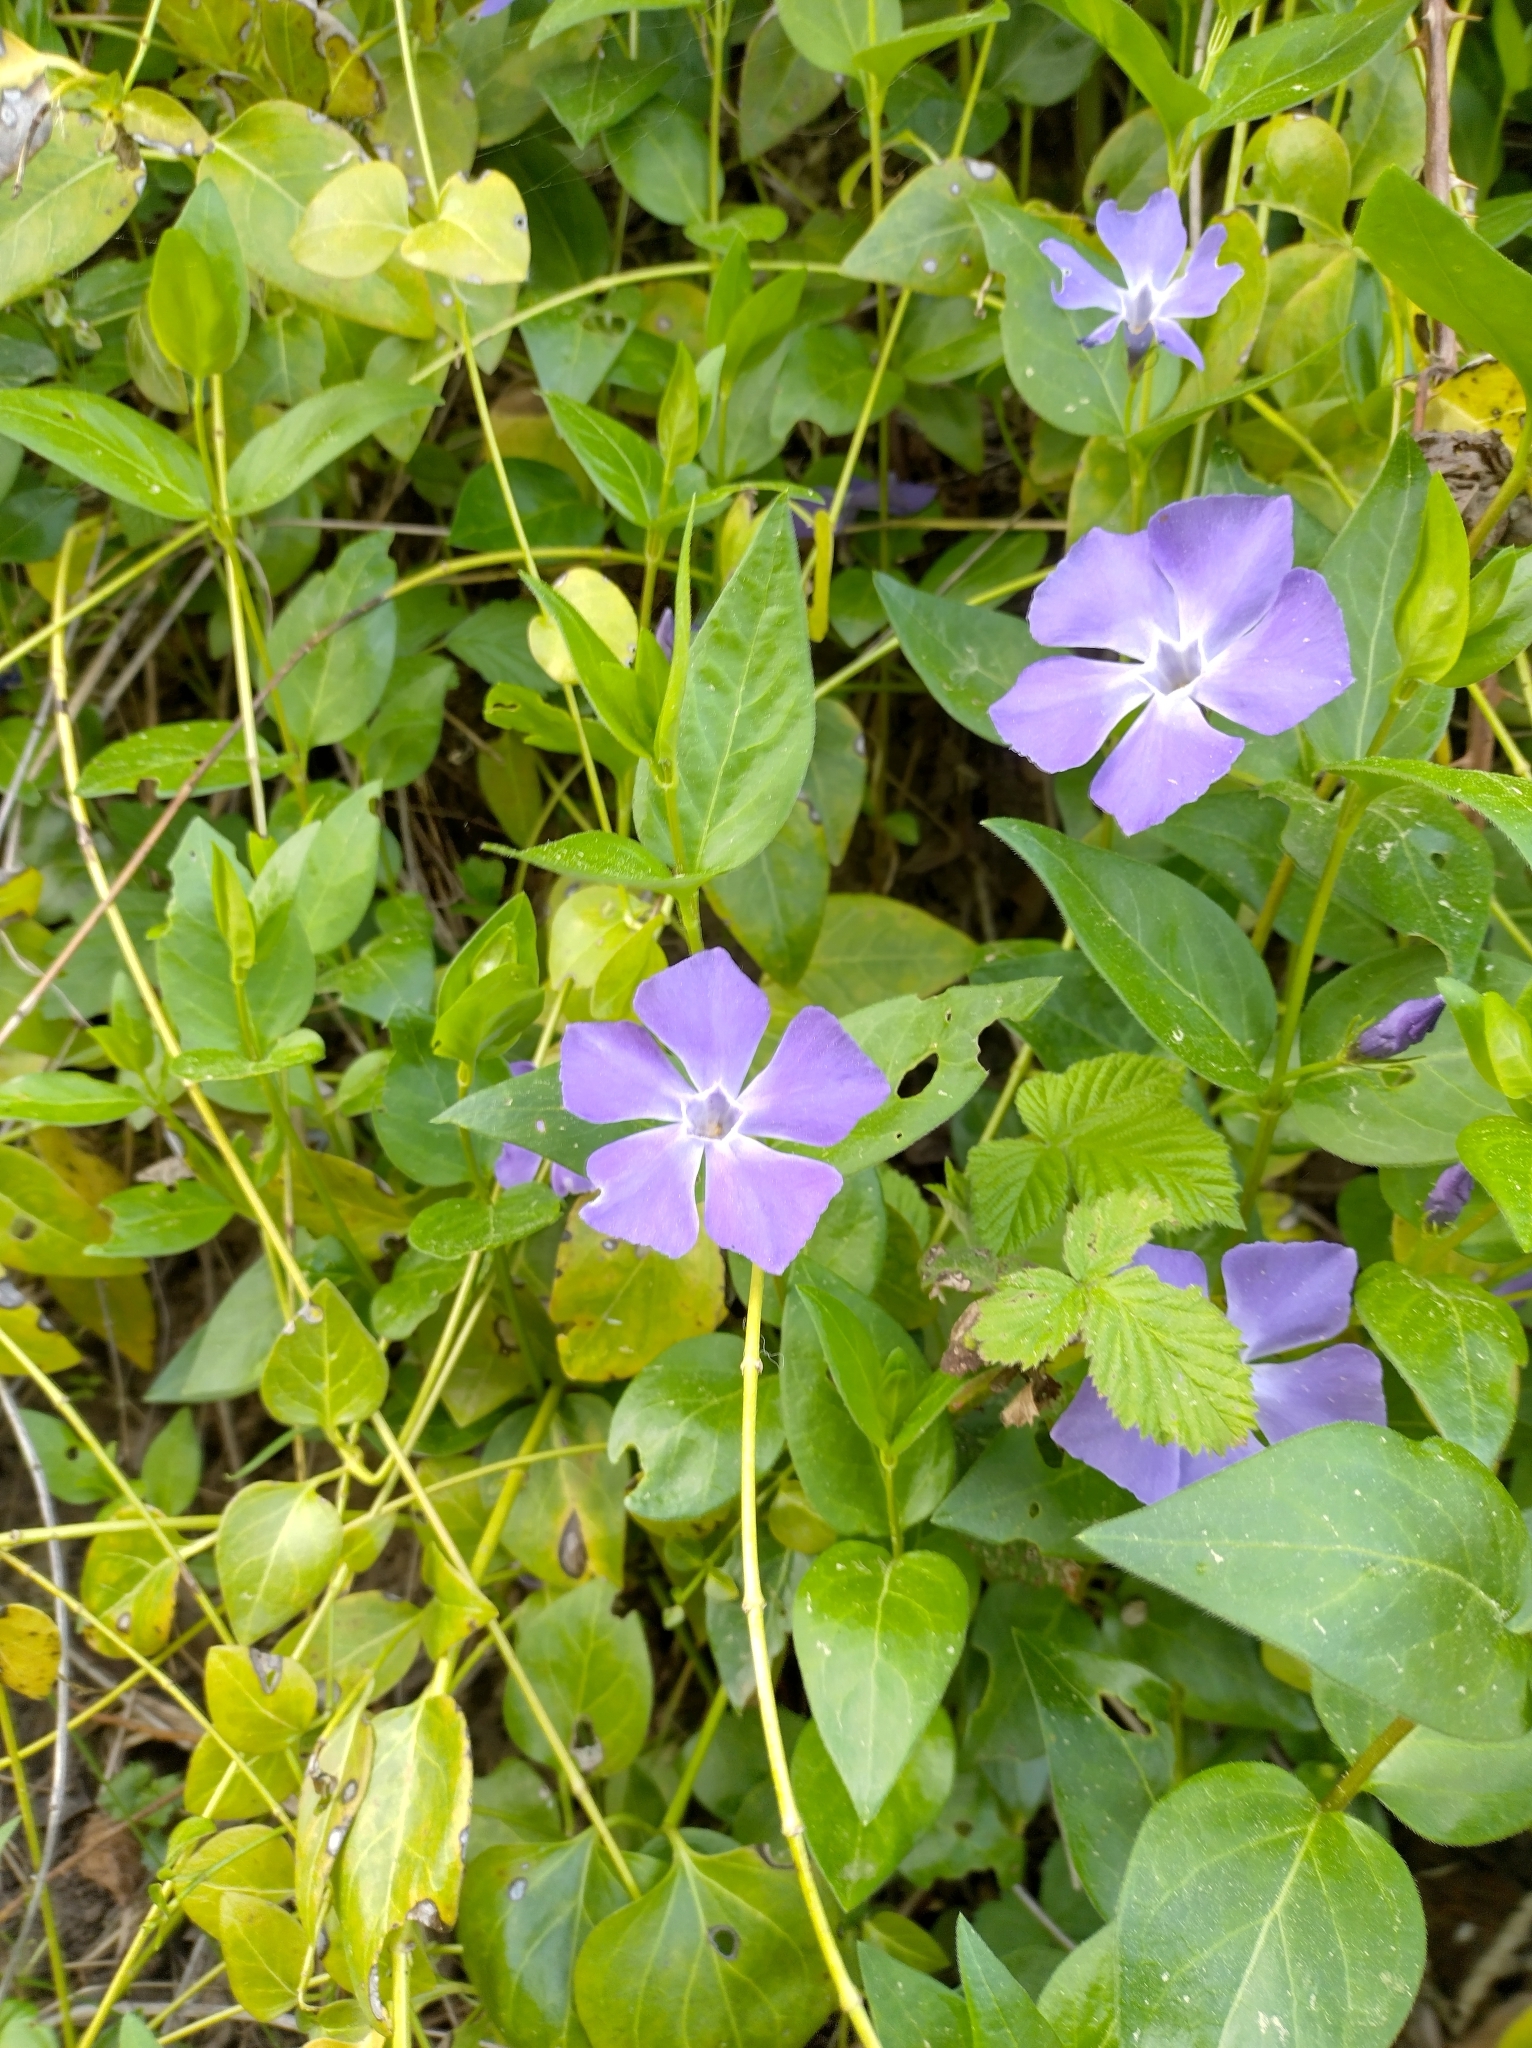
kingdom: Plantae
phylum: Tracheophyta
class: Magnoliopsida
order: Gentianales
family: Apocynaceae
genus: Vinca
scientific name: Vinca major
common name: Greater periwinkle
